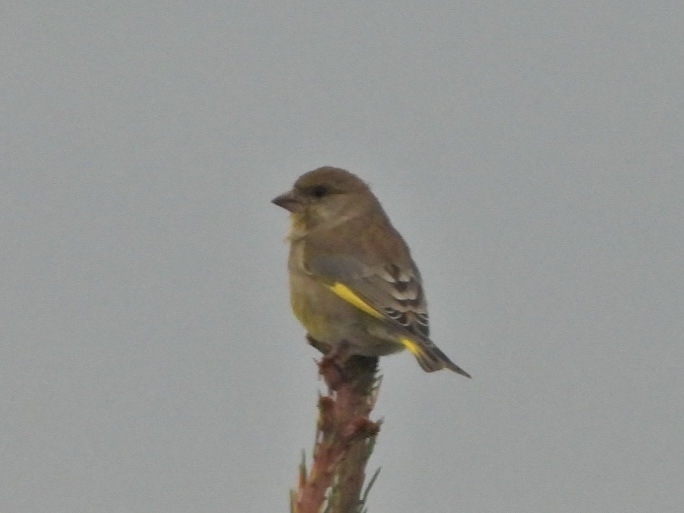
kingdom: Plantae
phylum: Tracheophyta
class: Liliopsida
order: Poales
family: Poaceae
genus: Chloris
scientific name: Chloris chloris
